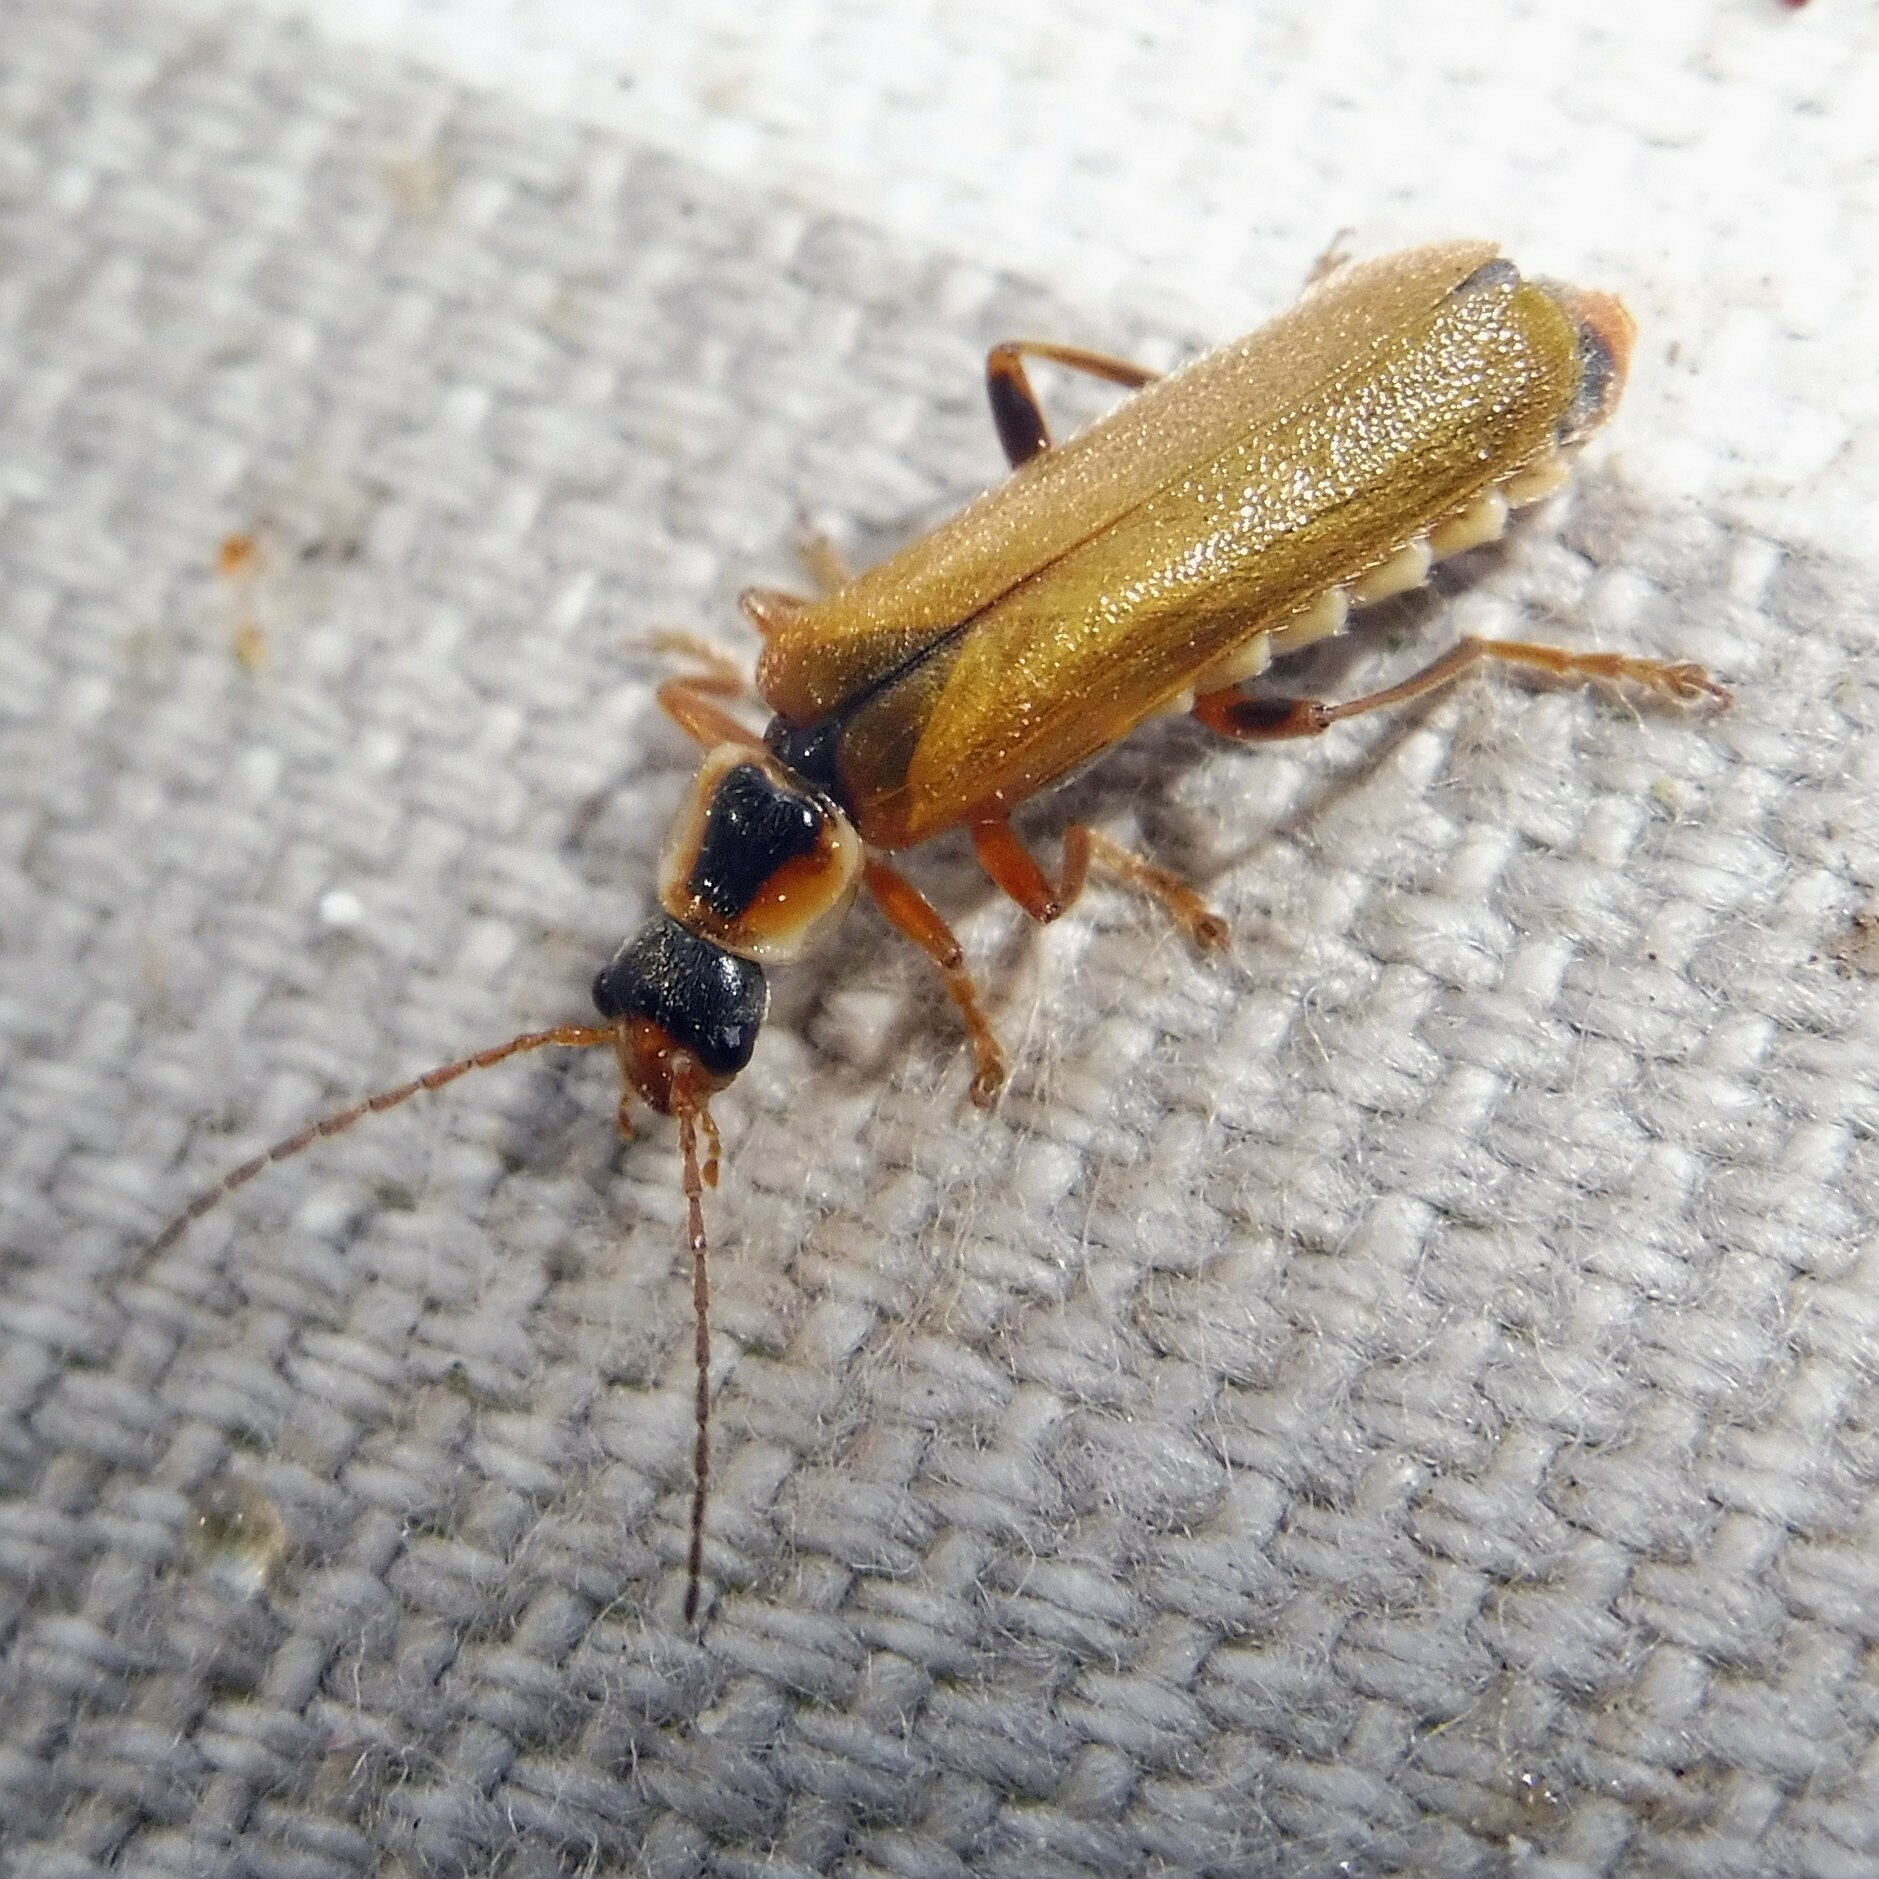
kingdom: Animalia
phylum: Arthropoda
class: Insecta
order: Coleoptera
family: Cantharidae
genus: Cantharis
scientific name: Cantharis decipiens
